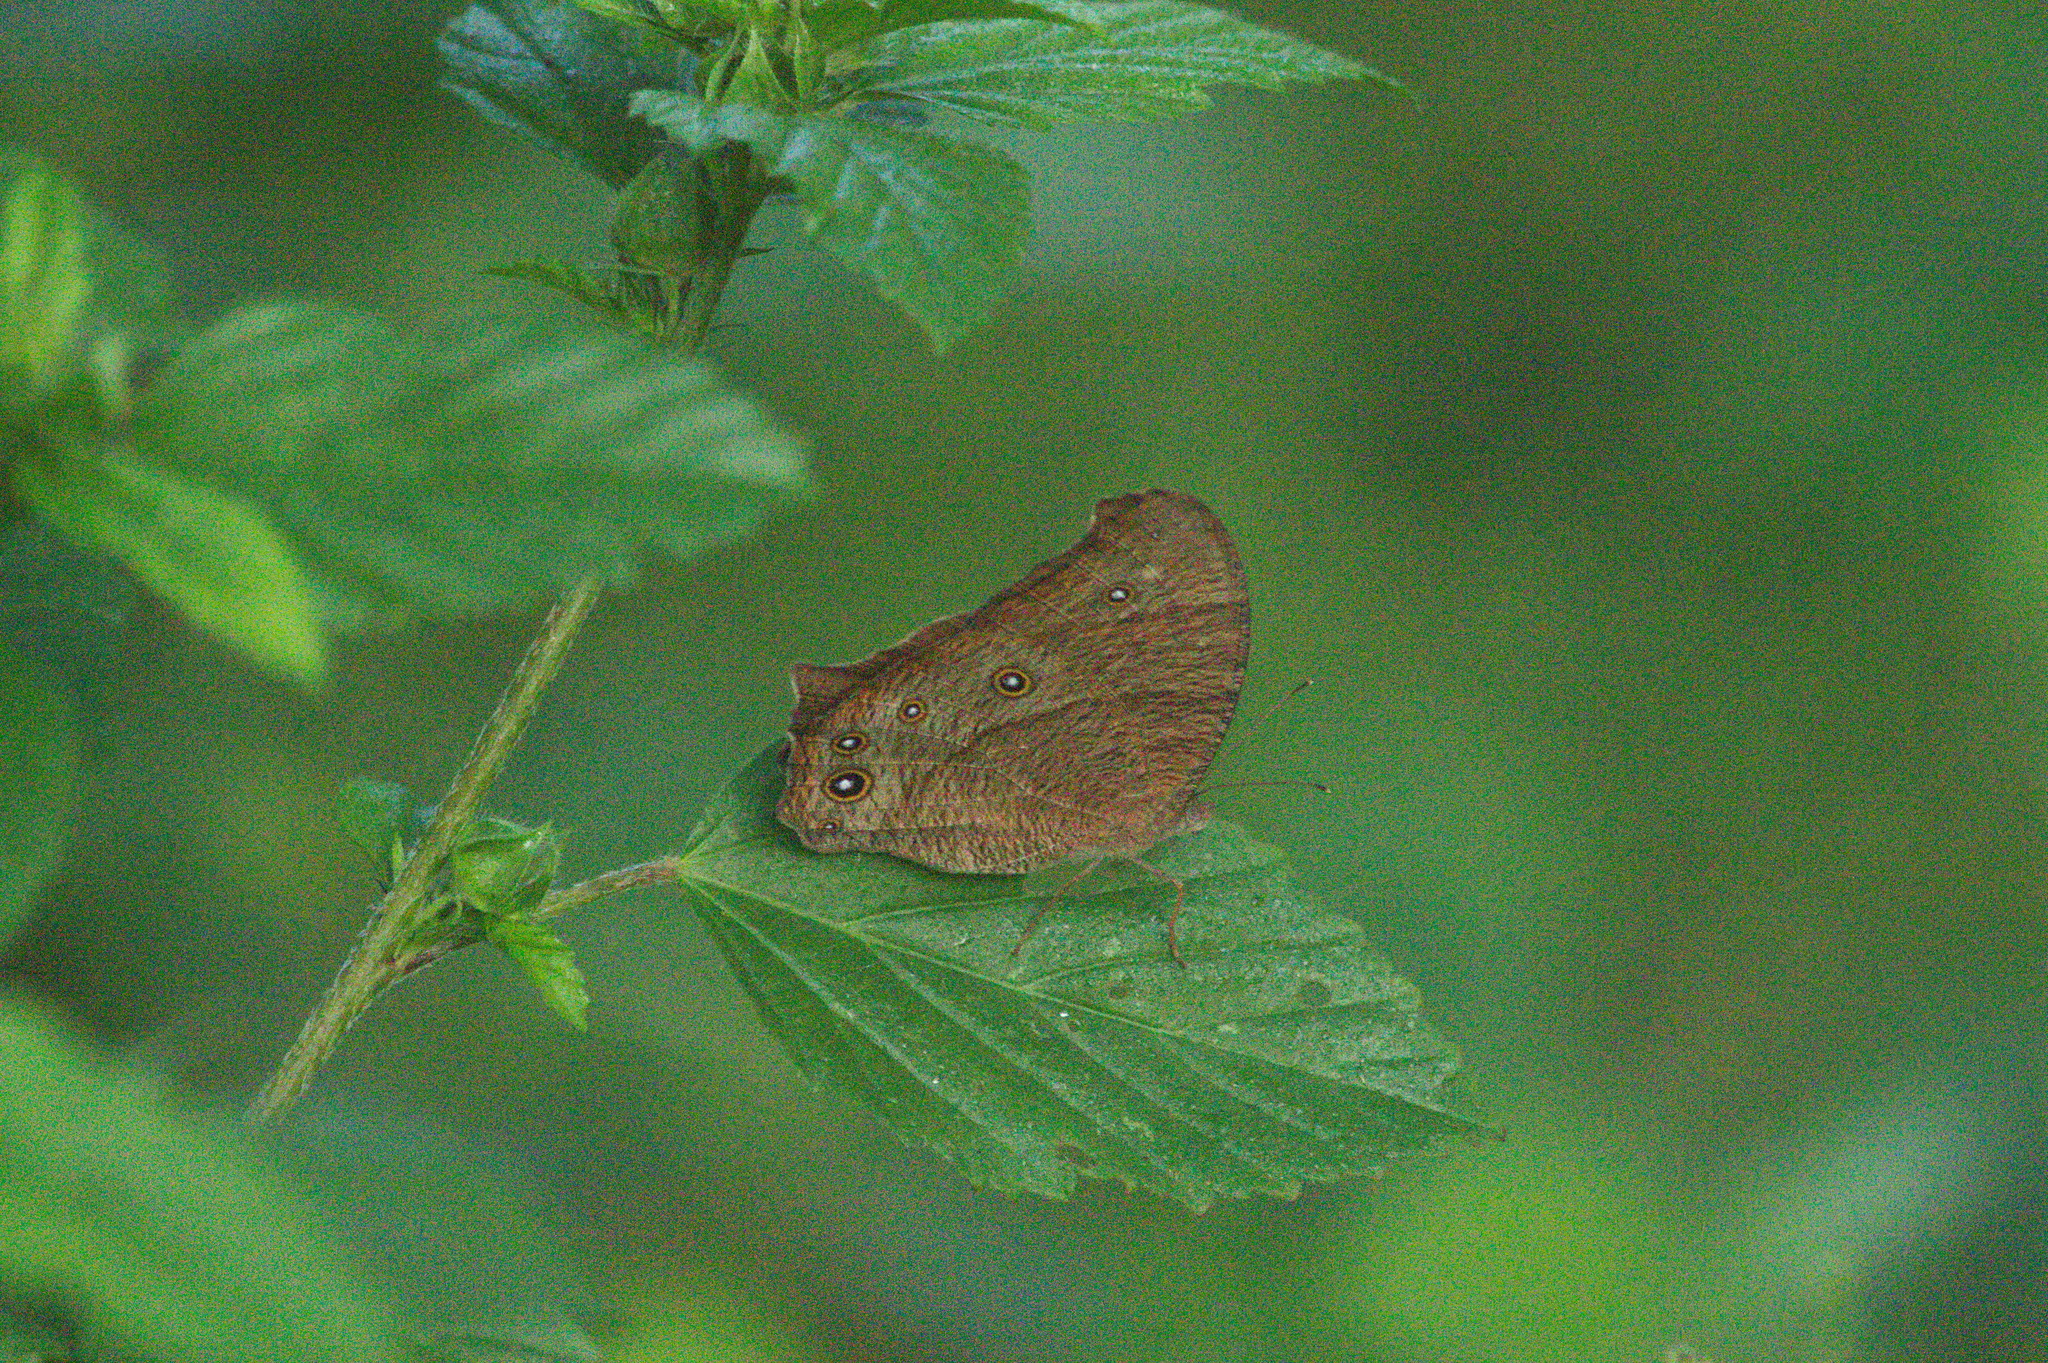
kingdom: Animalia
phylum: Arthropoda
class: Insecta
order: Lepidoptera
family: Nymphalidae
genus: Melanitis
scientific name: Melanitis leda
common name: Twilight brown
